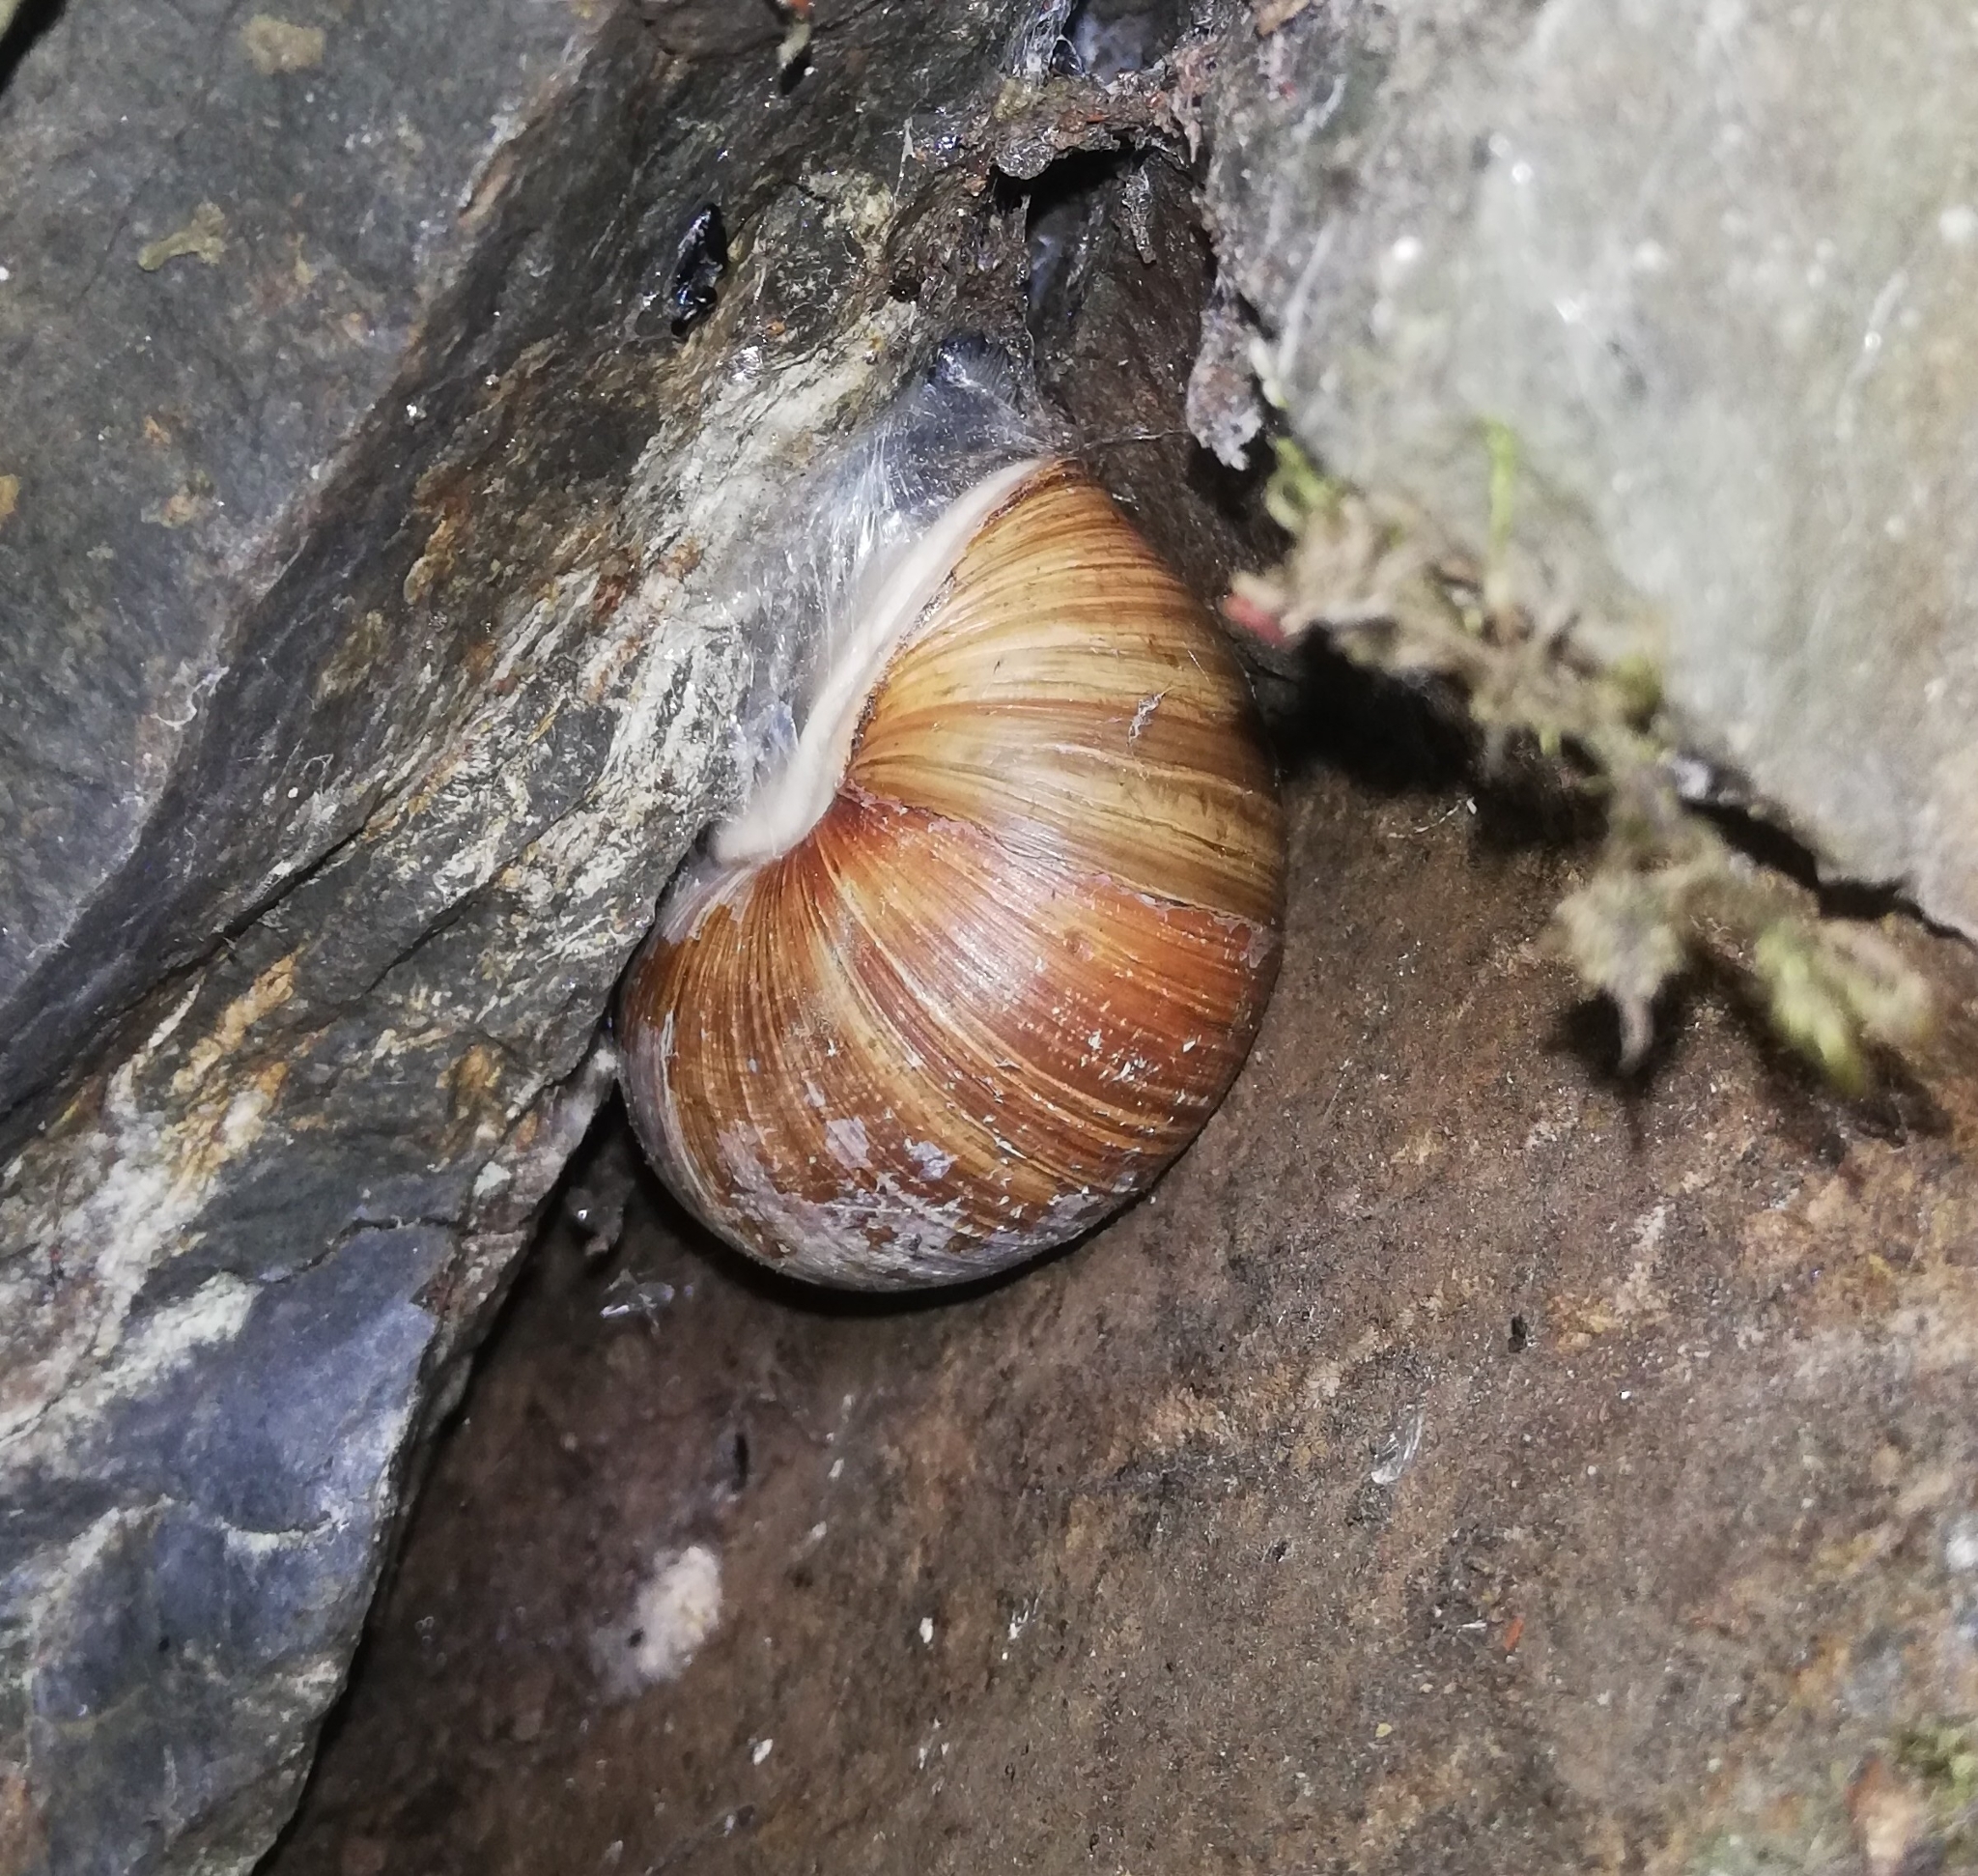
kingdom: Animalia
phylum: Mollusca
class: Gastropoda
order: Stylommatophora
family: Helicidae
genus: Helix
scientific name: Helix pomatia
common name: Roman snail
